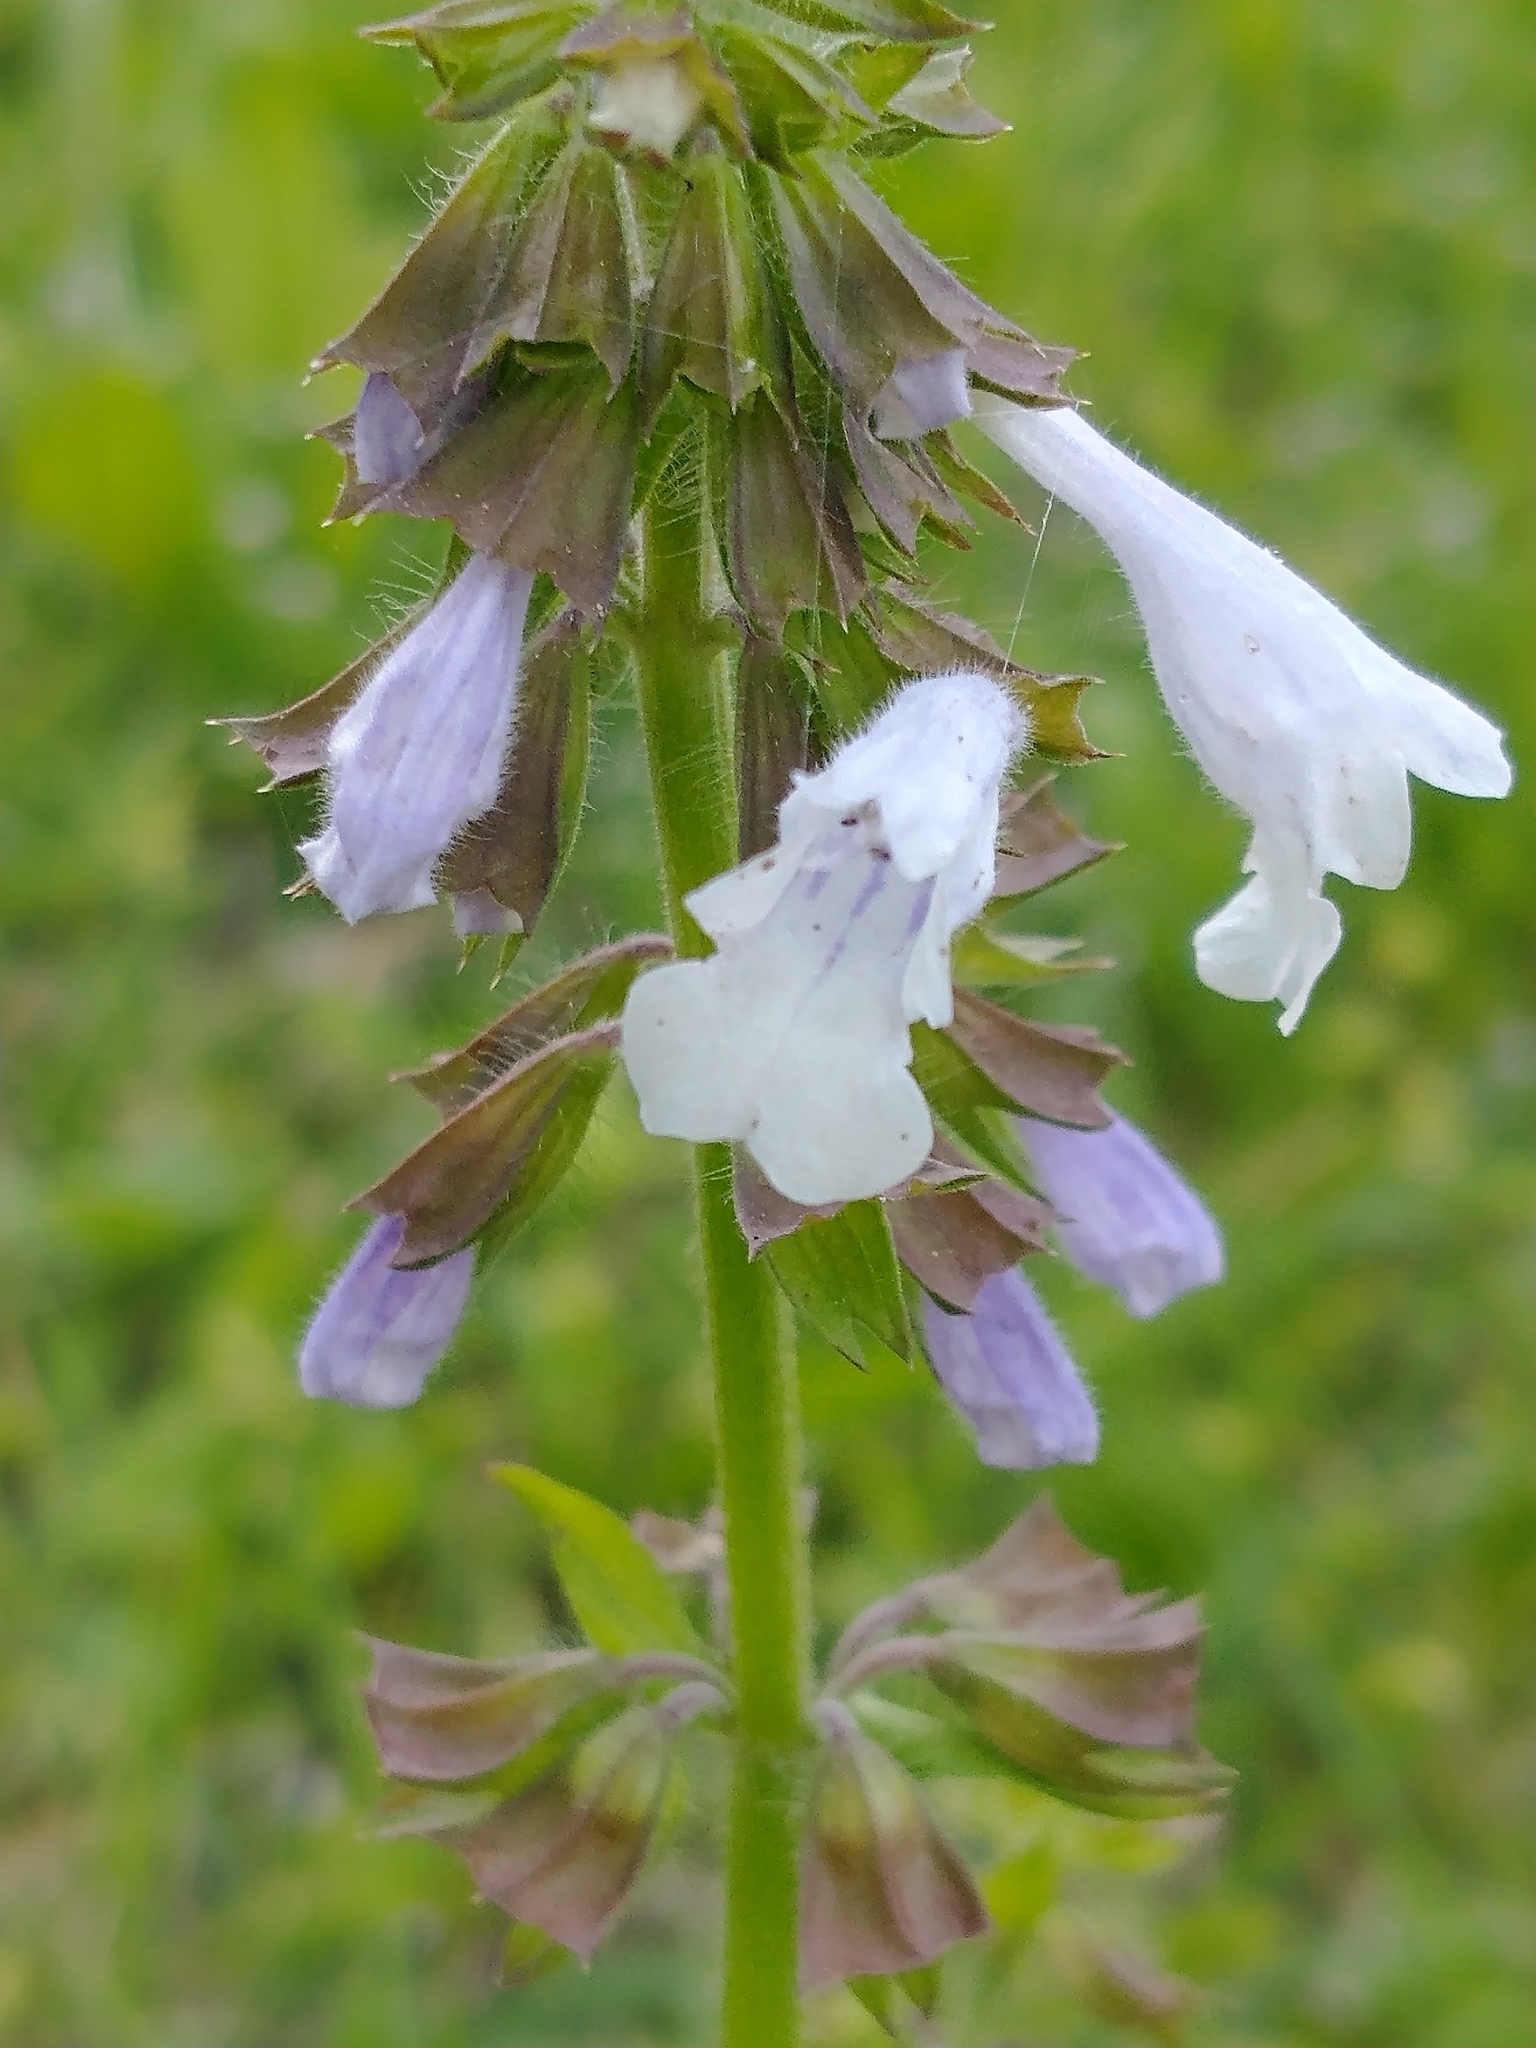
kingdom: Plantae
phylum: Tracheophyta
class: Magnoliopsida
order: Lamiales
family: Lamiaceae
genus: Salvia
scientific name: Salvia lyrata
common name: Cancerweed
